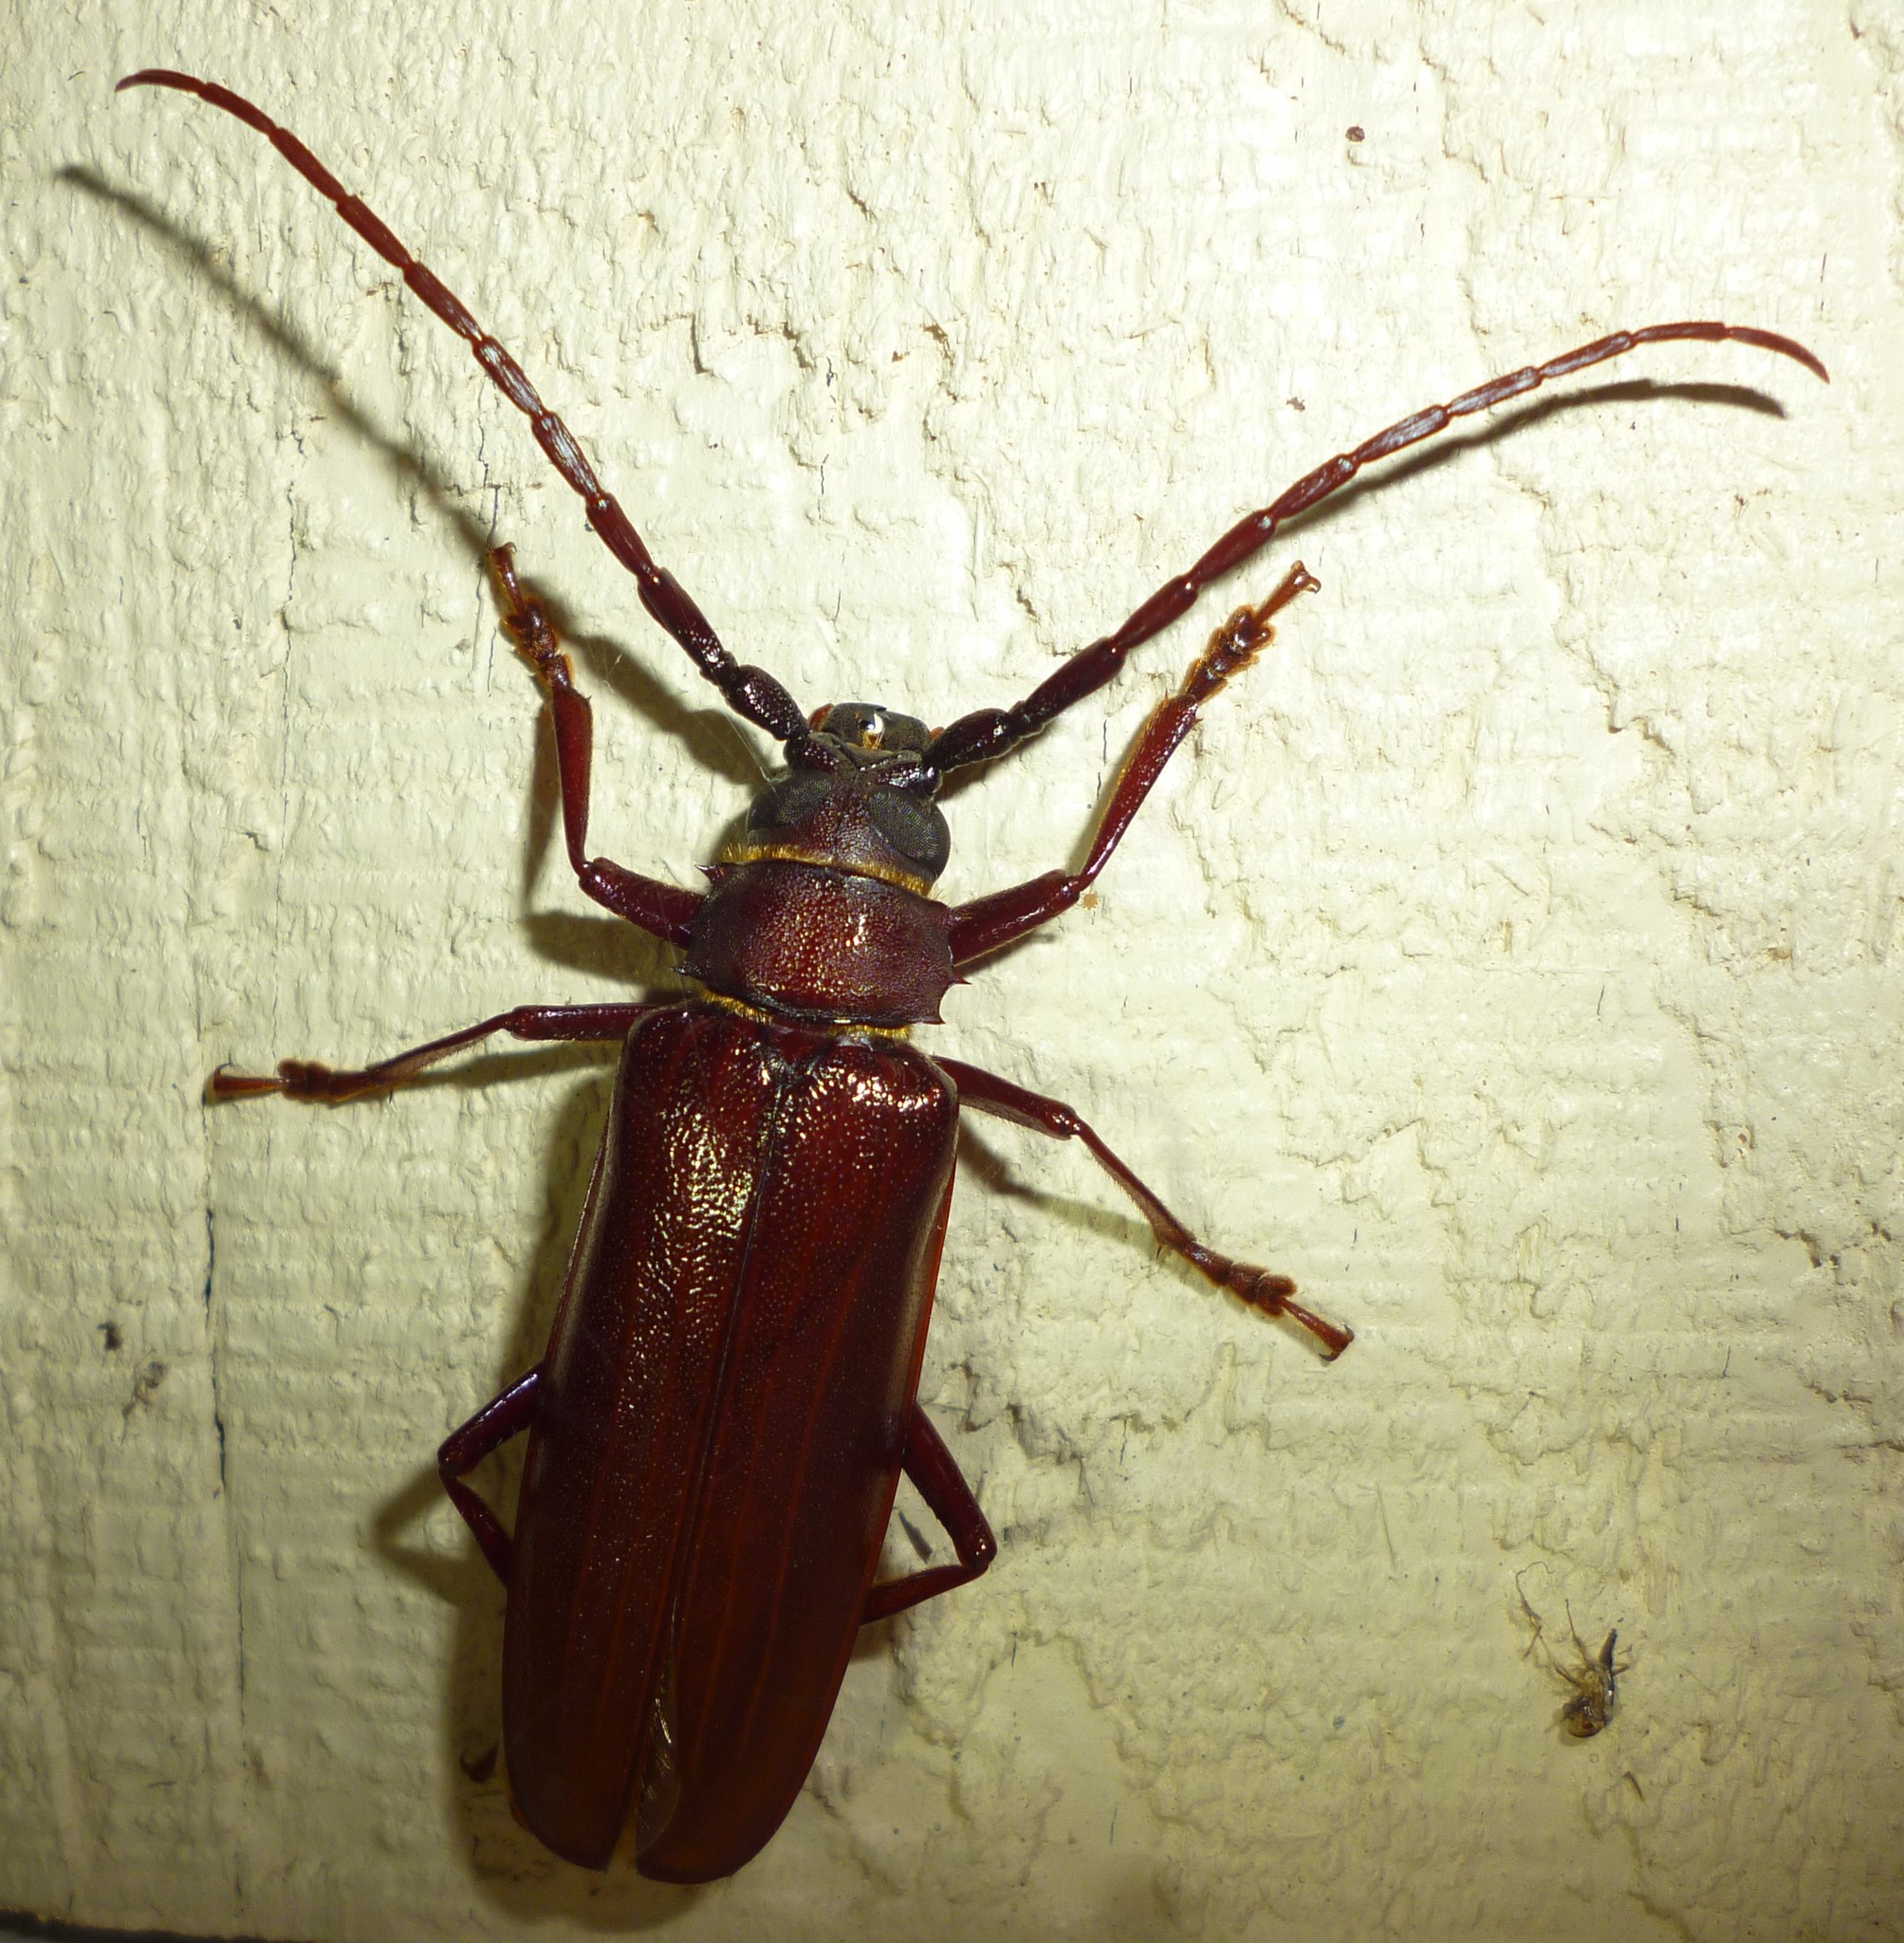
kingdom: Animalia
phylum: Arthropoda
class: Insecta
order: Coleoptera
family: Cerambycidae
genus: Orthosoma
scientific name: Orthosoma brunneum
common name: Brown prionid beetle
